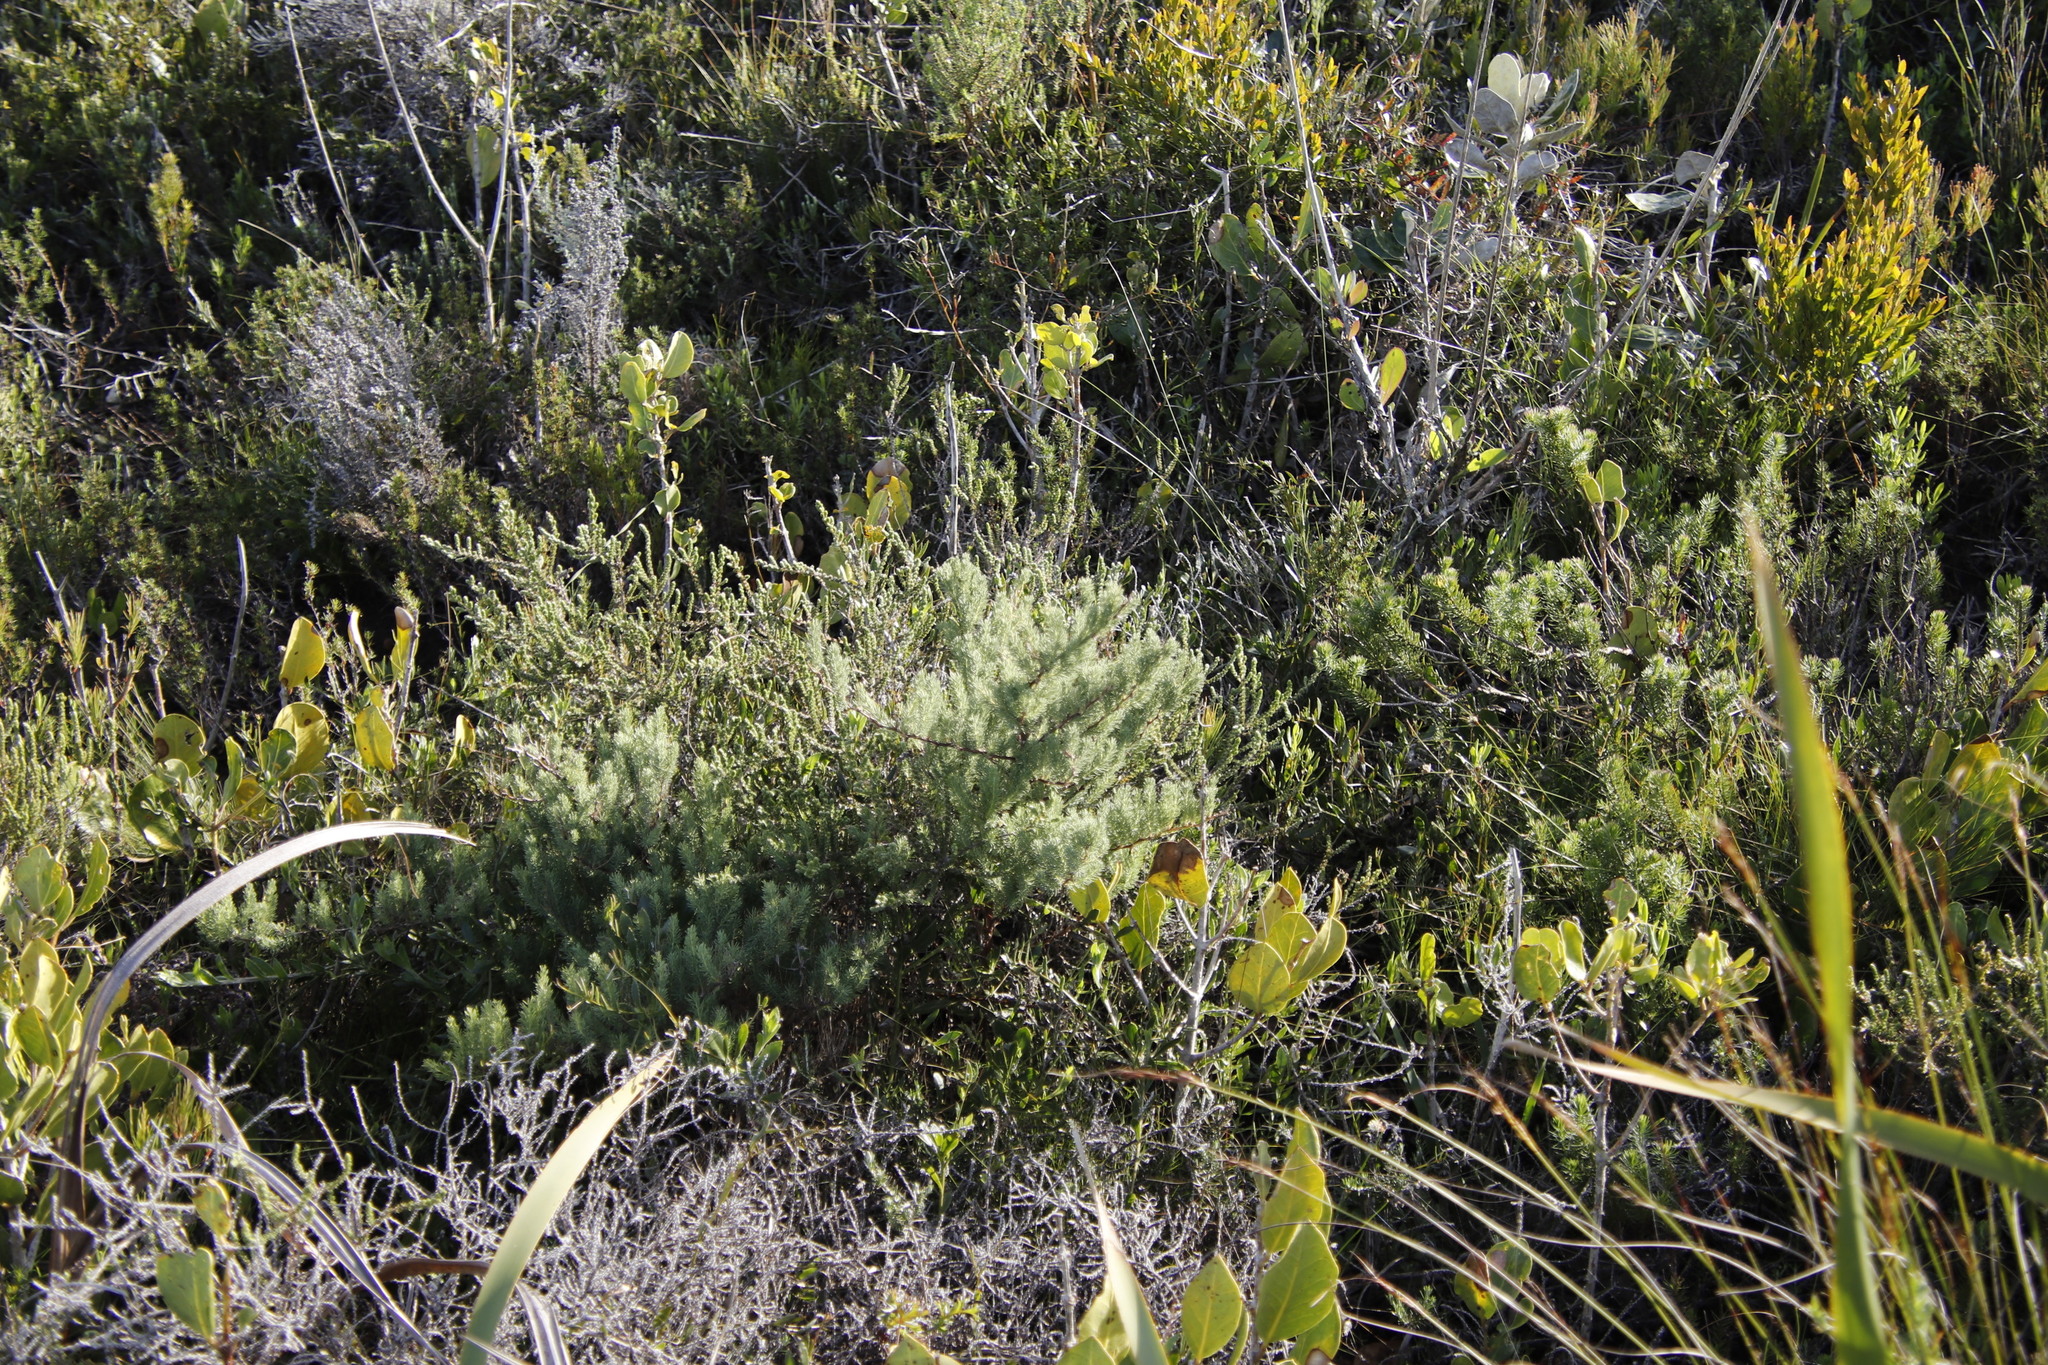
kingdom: Plantae
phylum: Tracheophyta
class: Liliopsida
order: Asparagales
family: Asparagaceae
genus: Asparagus
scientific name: Asparagus rubicundus
